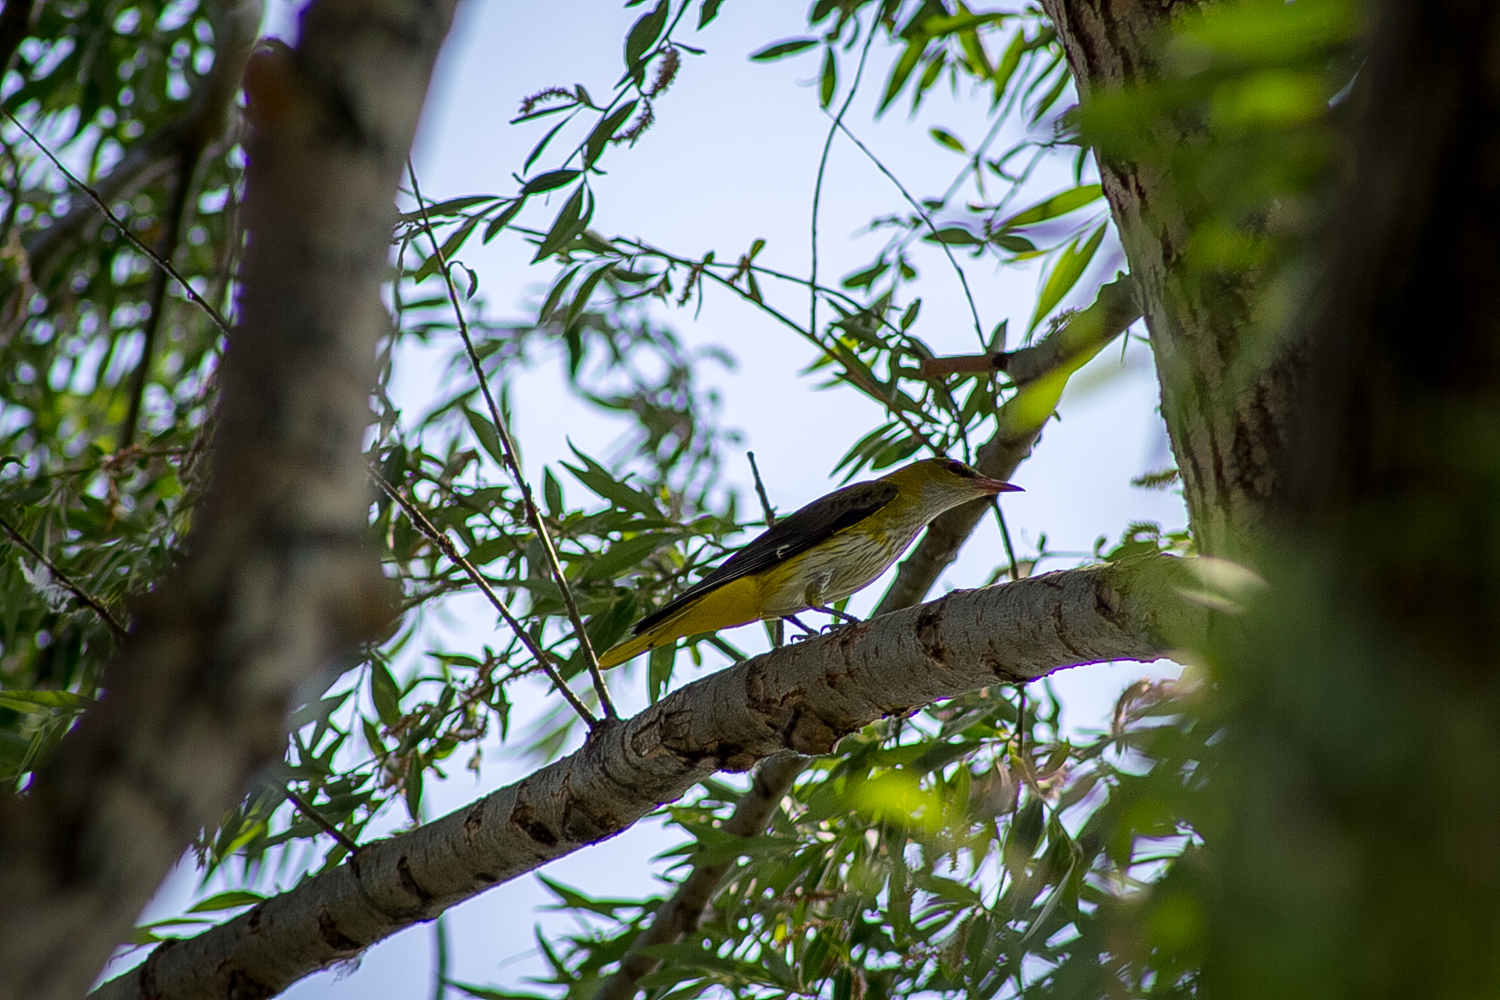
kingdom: Animalia
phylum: Chordata
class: Aves
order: Passeriformes
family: Oriolidae
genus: Oriolus
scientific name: Oriolus oriolus
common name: Eurasian golden oriole
